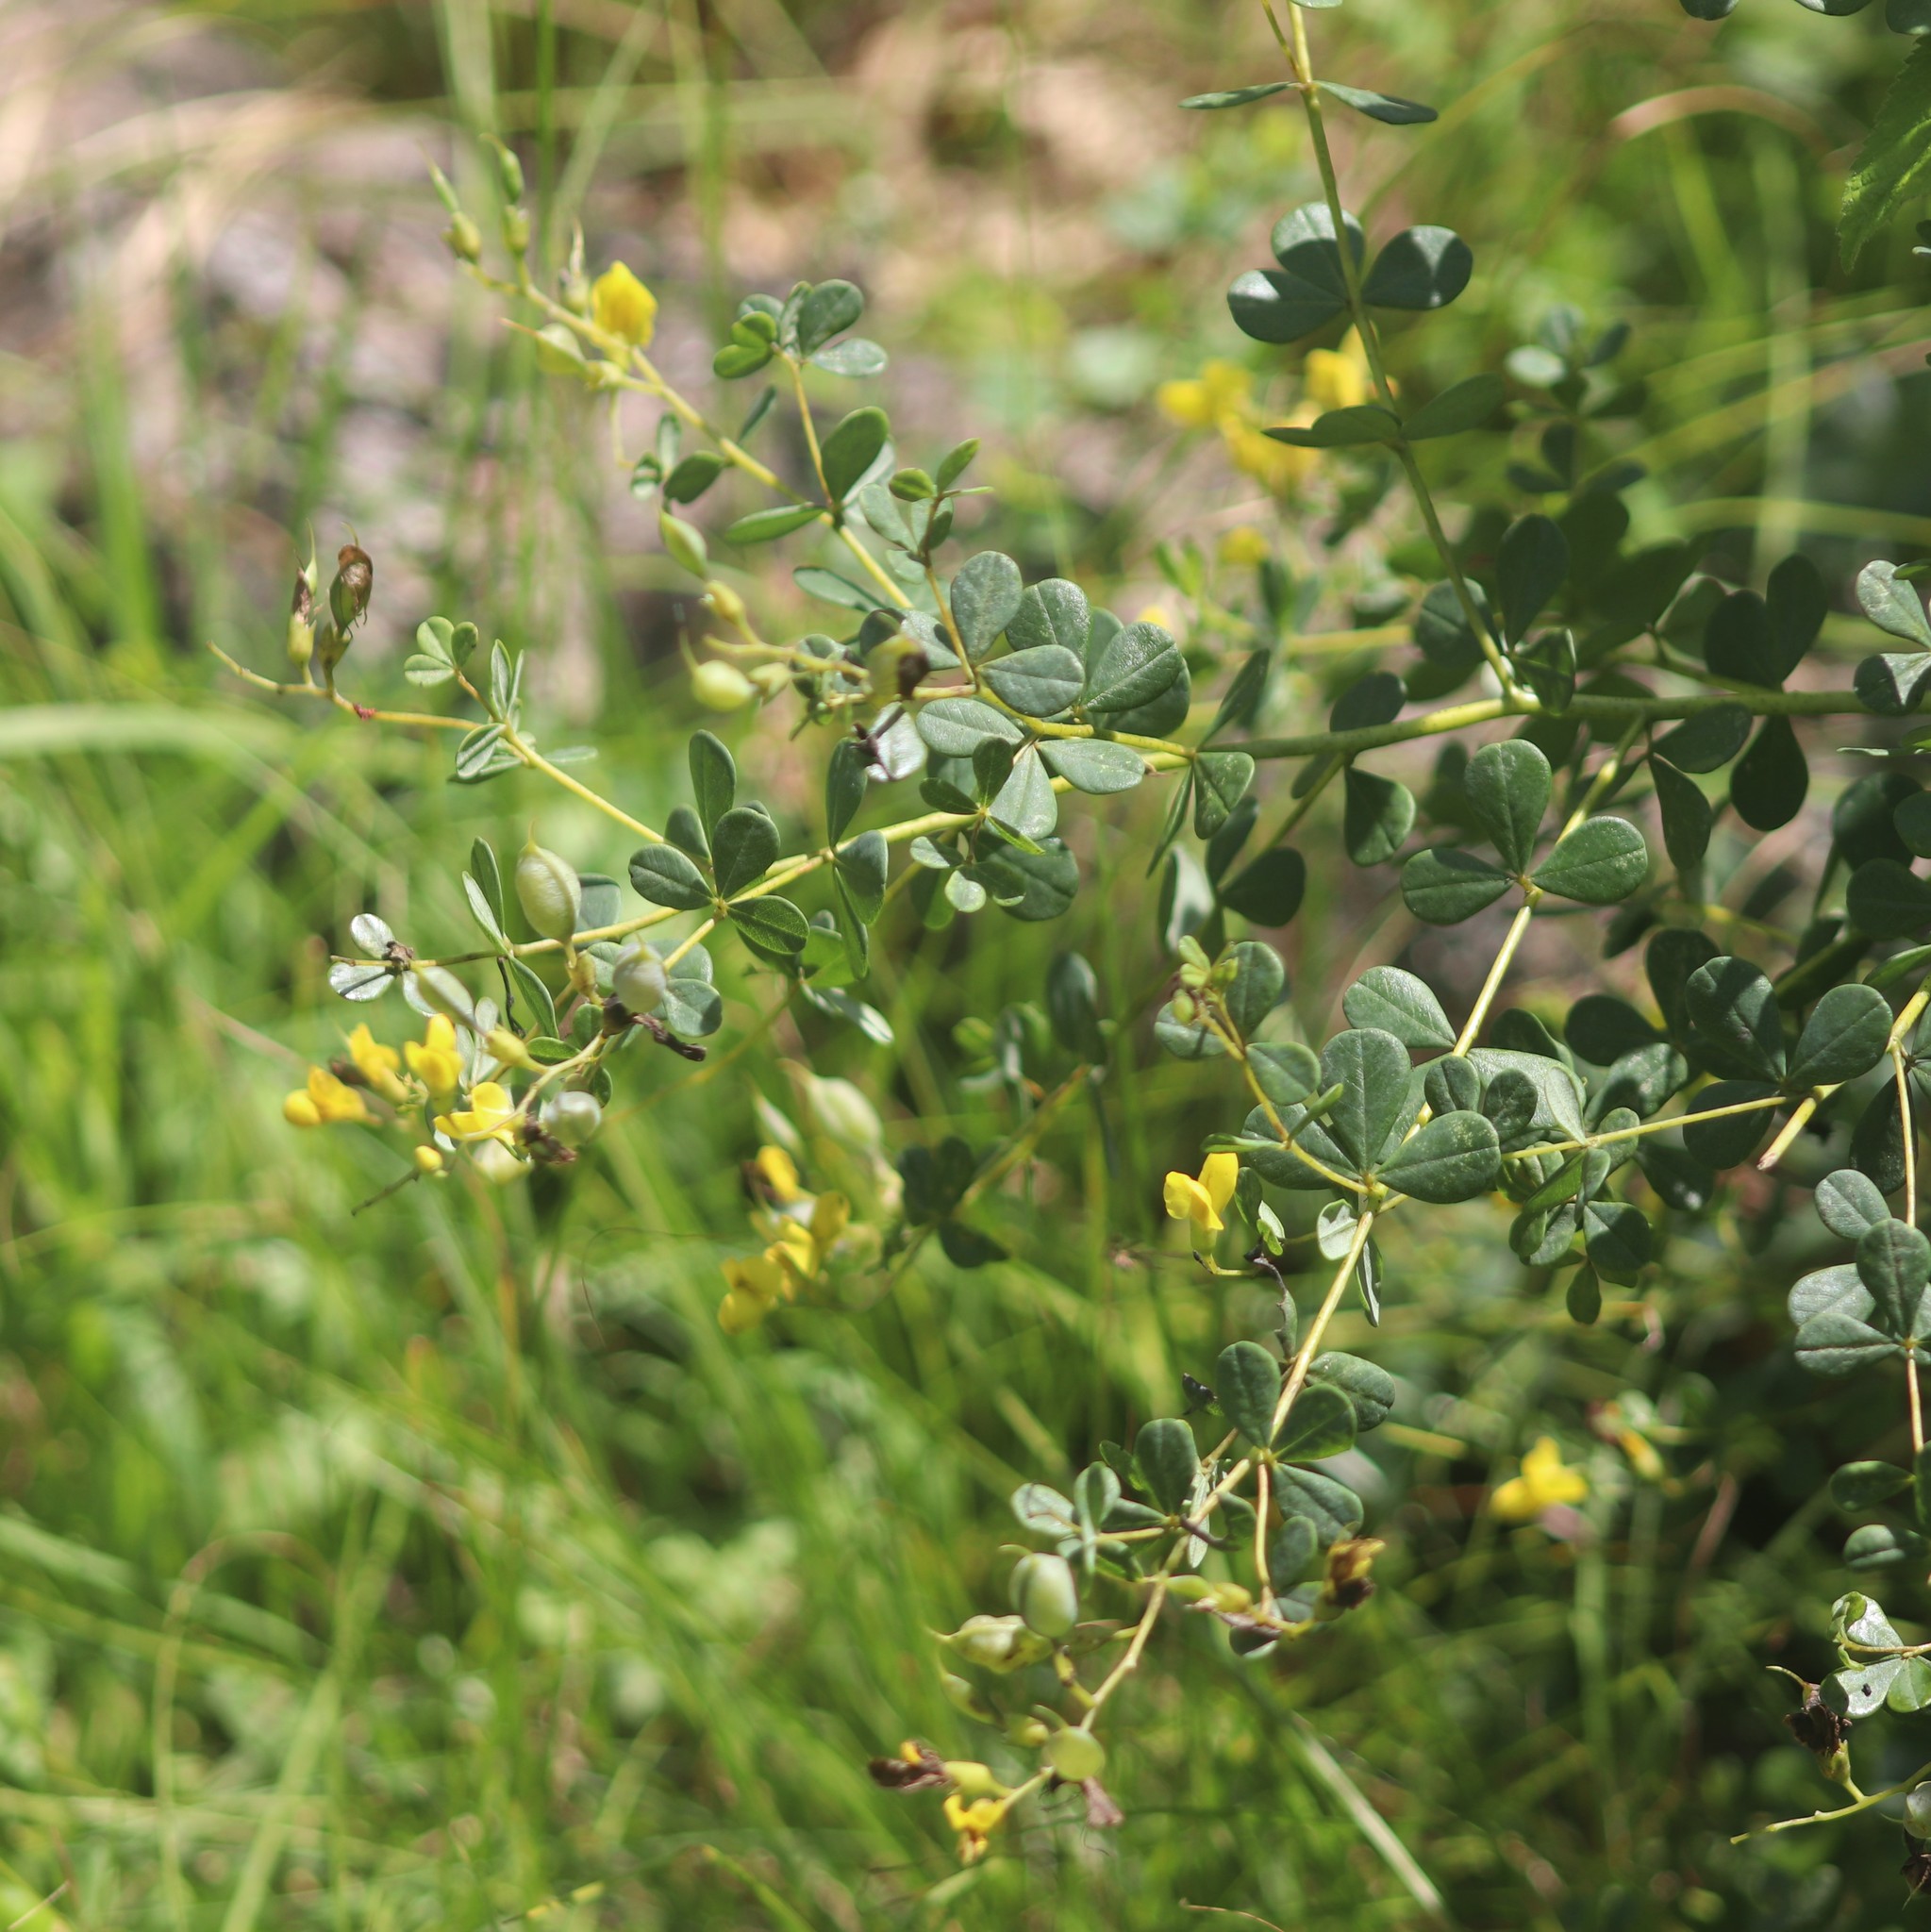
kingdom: Plantae
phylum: Tracheophyta
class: Magnoliopsida
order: Fabales
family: Fabaceae
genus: Baptisia
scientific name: Baptisia tinctoria
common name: Wild indigo
